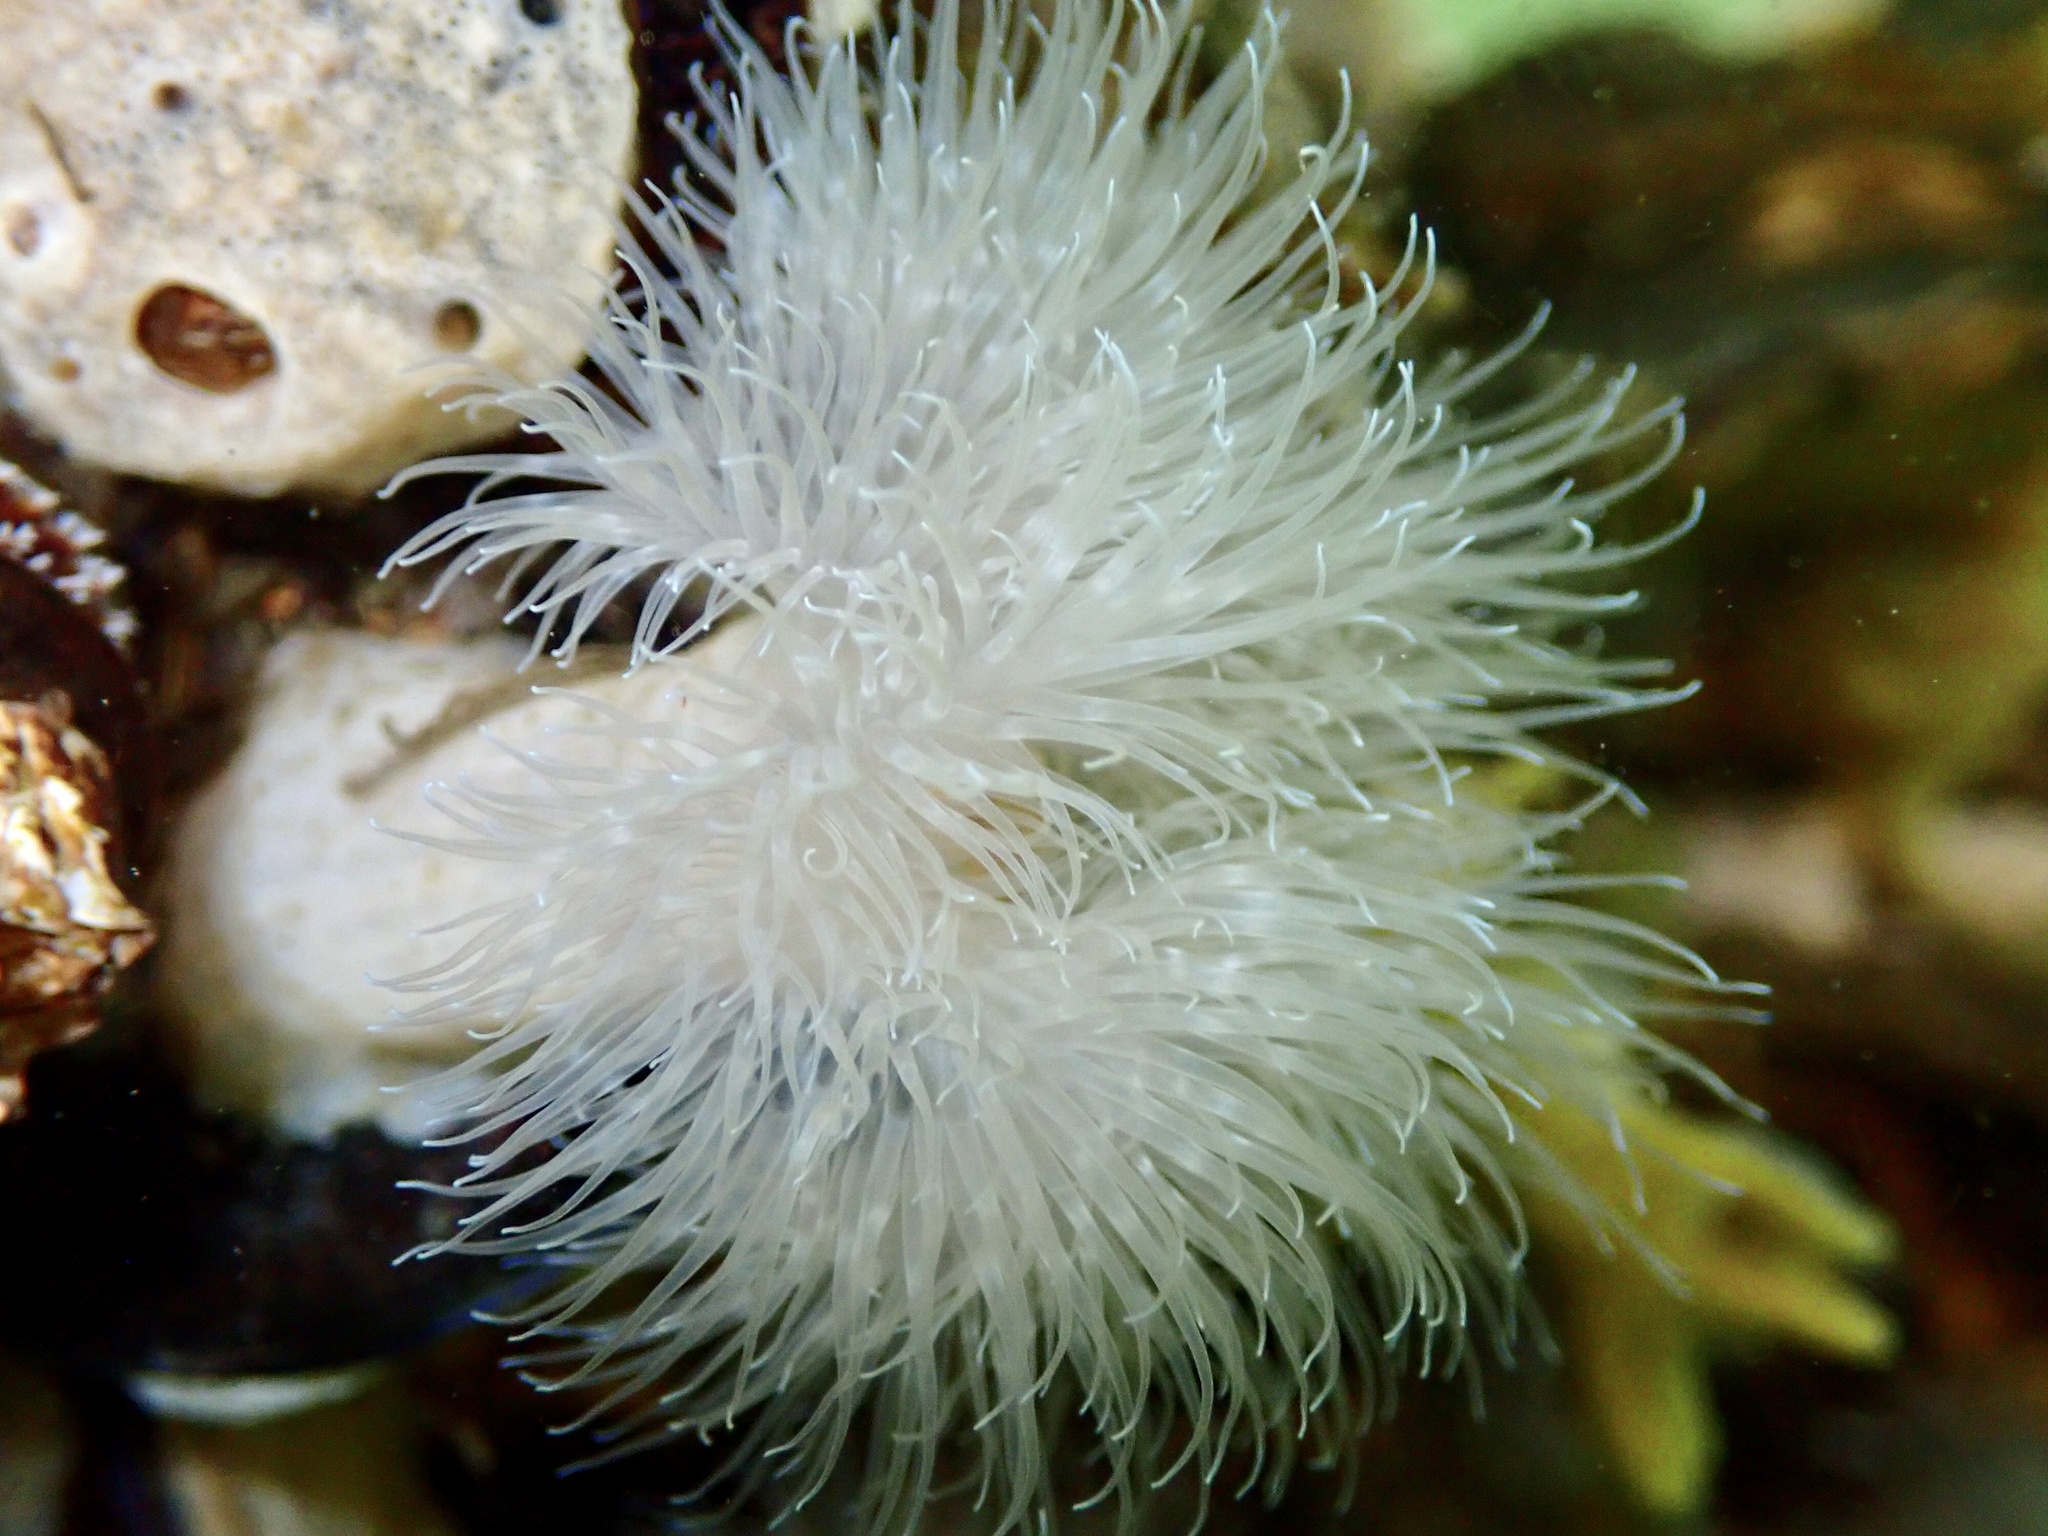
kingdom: Animalia
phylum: Cnidaria
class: Anthozoa
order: Actiniaria
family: Metridiidae
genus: Metridium
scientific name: Metridium senile
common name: Clonal plumose anemone
